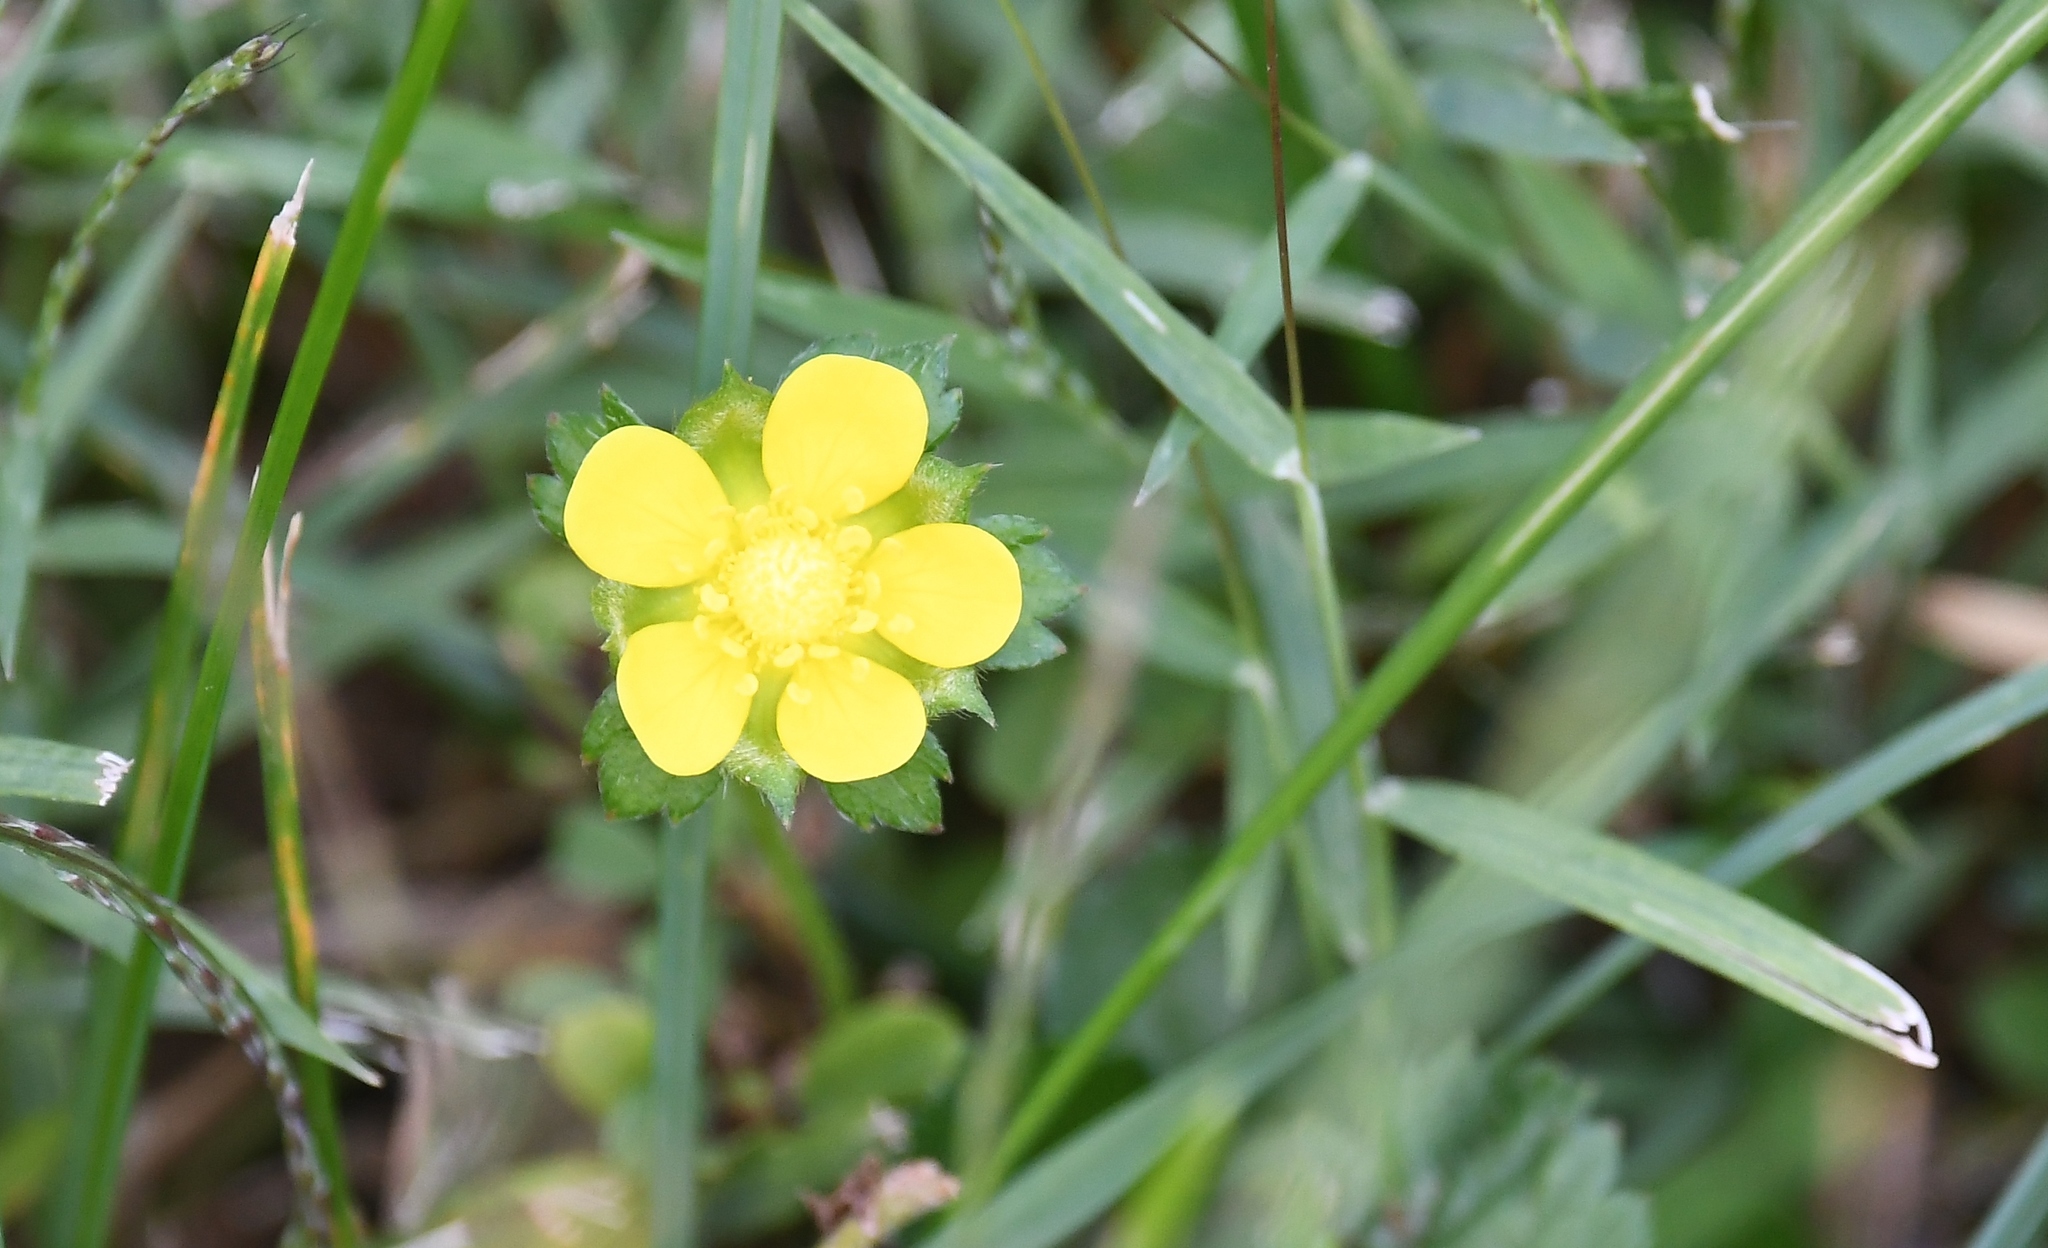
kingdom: Plantae
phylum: Tracheophyta
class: Magnoliopsida
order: Rosales
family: Rosaceae
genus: Potentilla
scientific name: Potentilla indica
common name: Yellow-flowered strawberry
